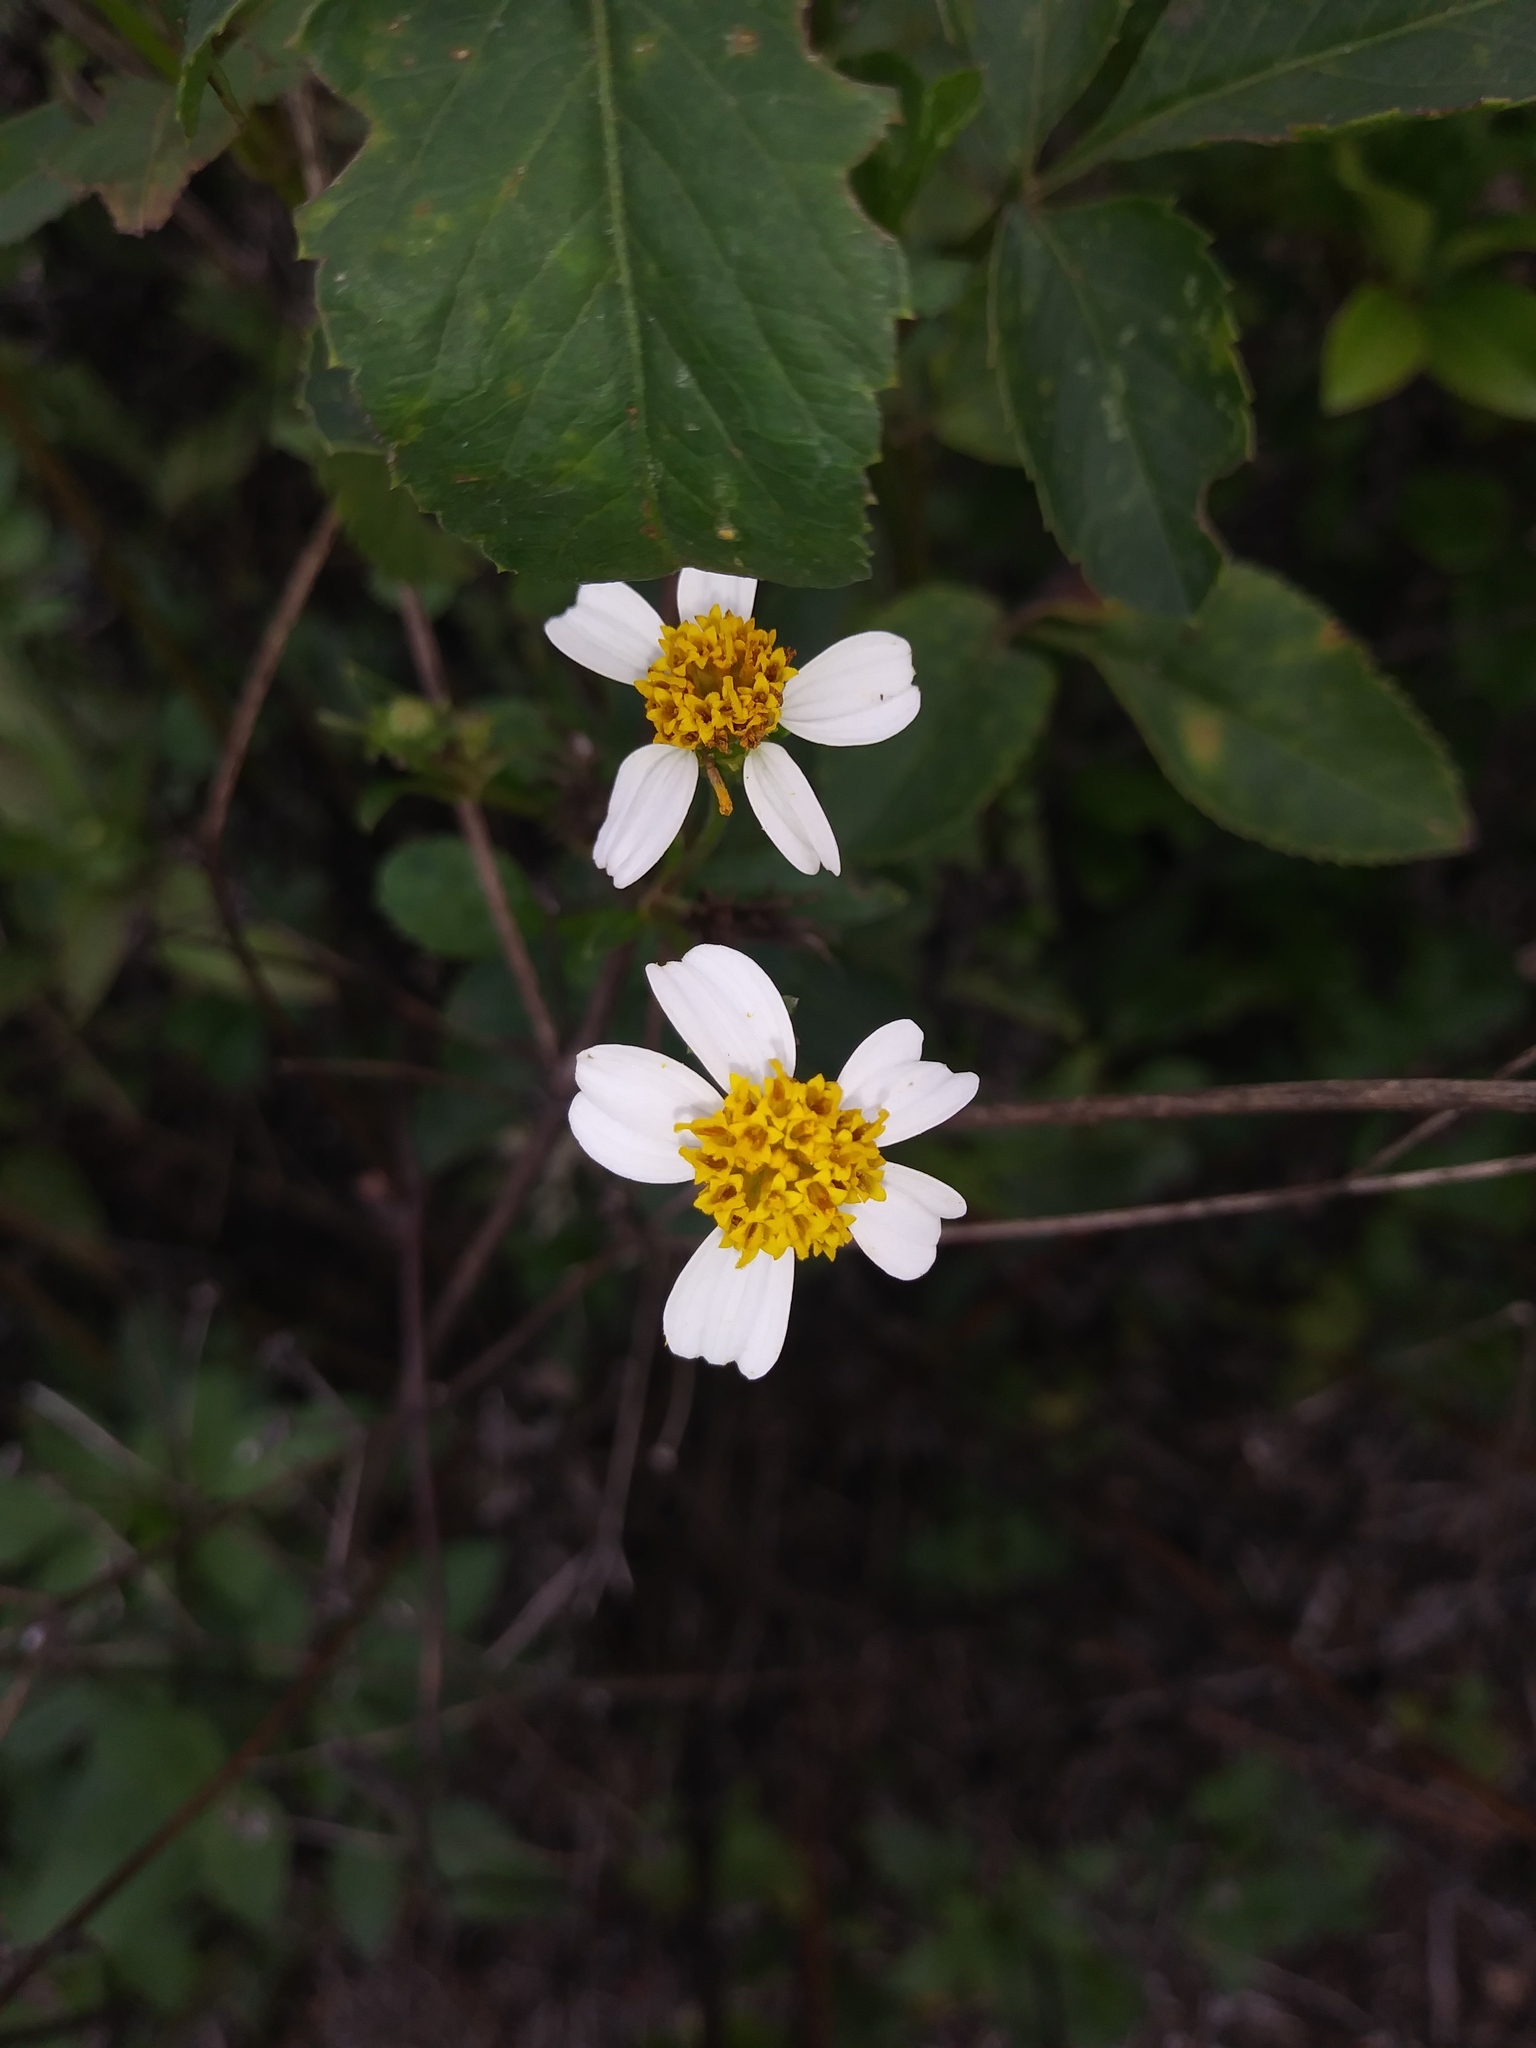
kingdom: Plantae
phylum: Tracheophyta
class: Magnoliopsida
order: Asterales
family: Asteraceae
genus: Bidens
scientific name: Bidens alba
